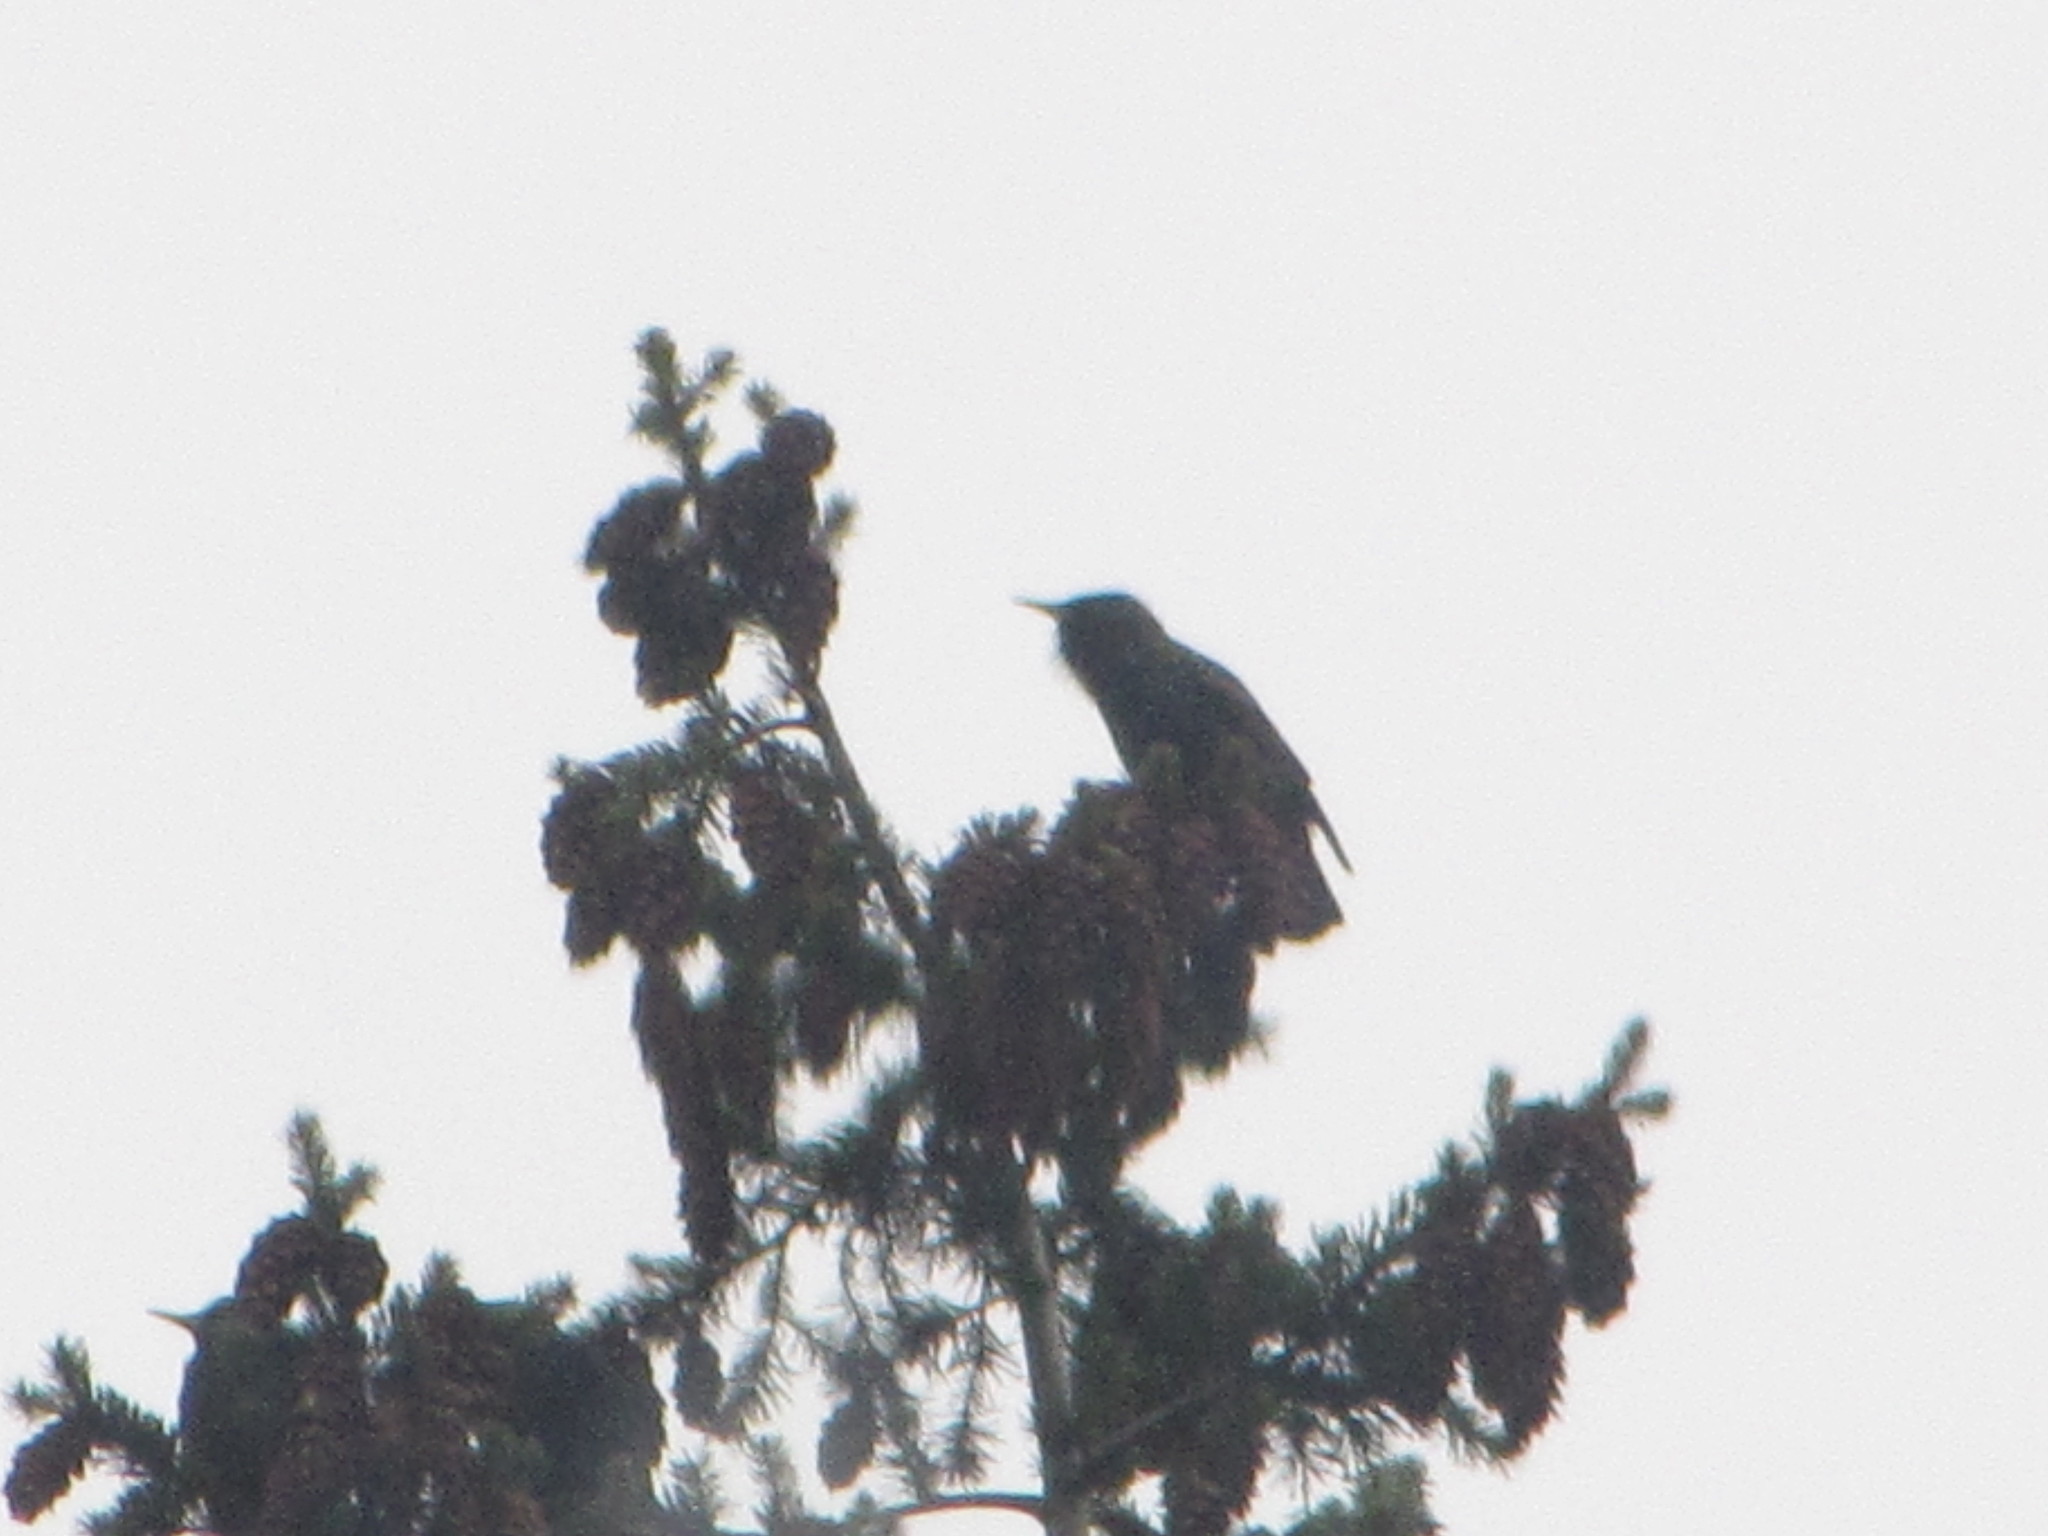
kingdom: Animalia
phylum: Chordata
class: Aves
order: Passeriformes
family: Sturnidae
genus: Sturnus
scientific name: Sturnus vulgaris
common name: Common starling
